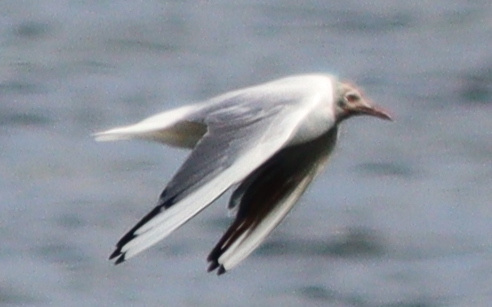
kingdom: Animalia
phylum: Chordata
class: Aves
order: Charadriiformes
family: Laridae
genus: Chroicocephalus
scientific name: Chroicocephalus ridibundus
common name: Black-headed gull
